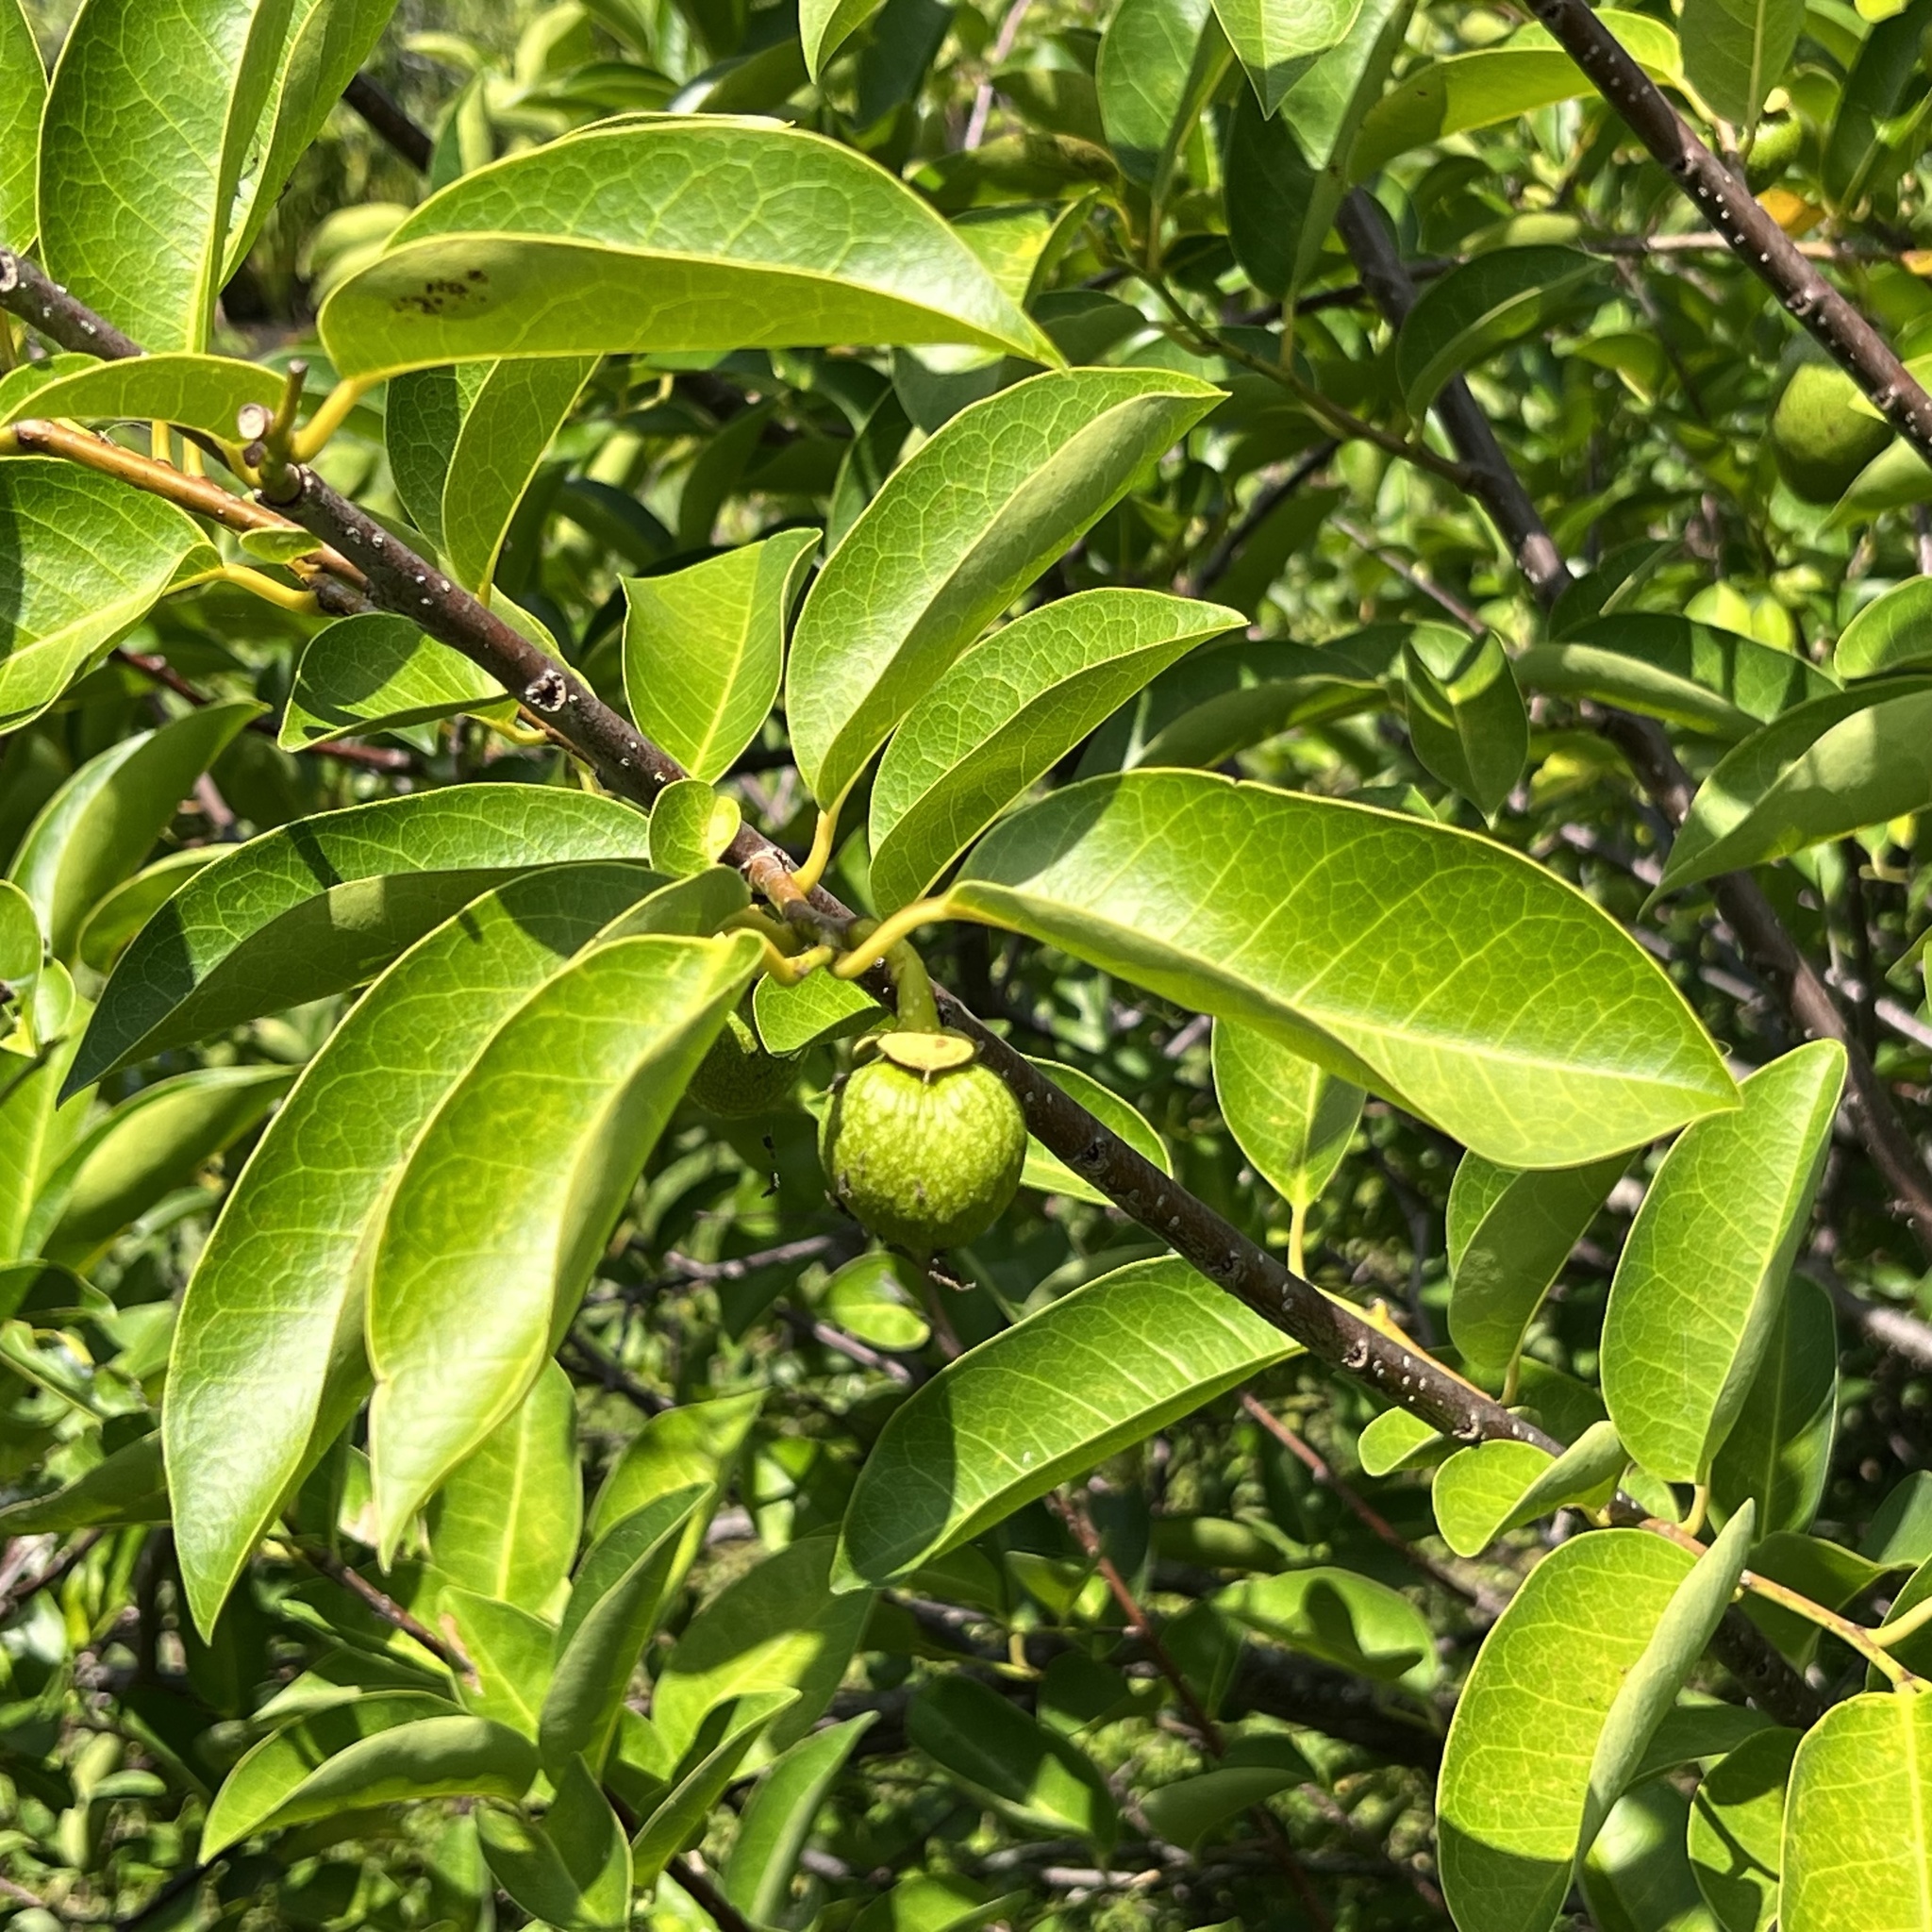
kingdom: Plantae
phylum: Tracheophyta
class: Magnoliopsida
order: Magnoliales
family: Annonaceae
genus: Annona
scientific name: Annona glabra
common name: Monkey apple
